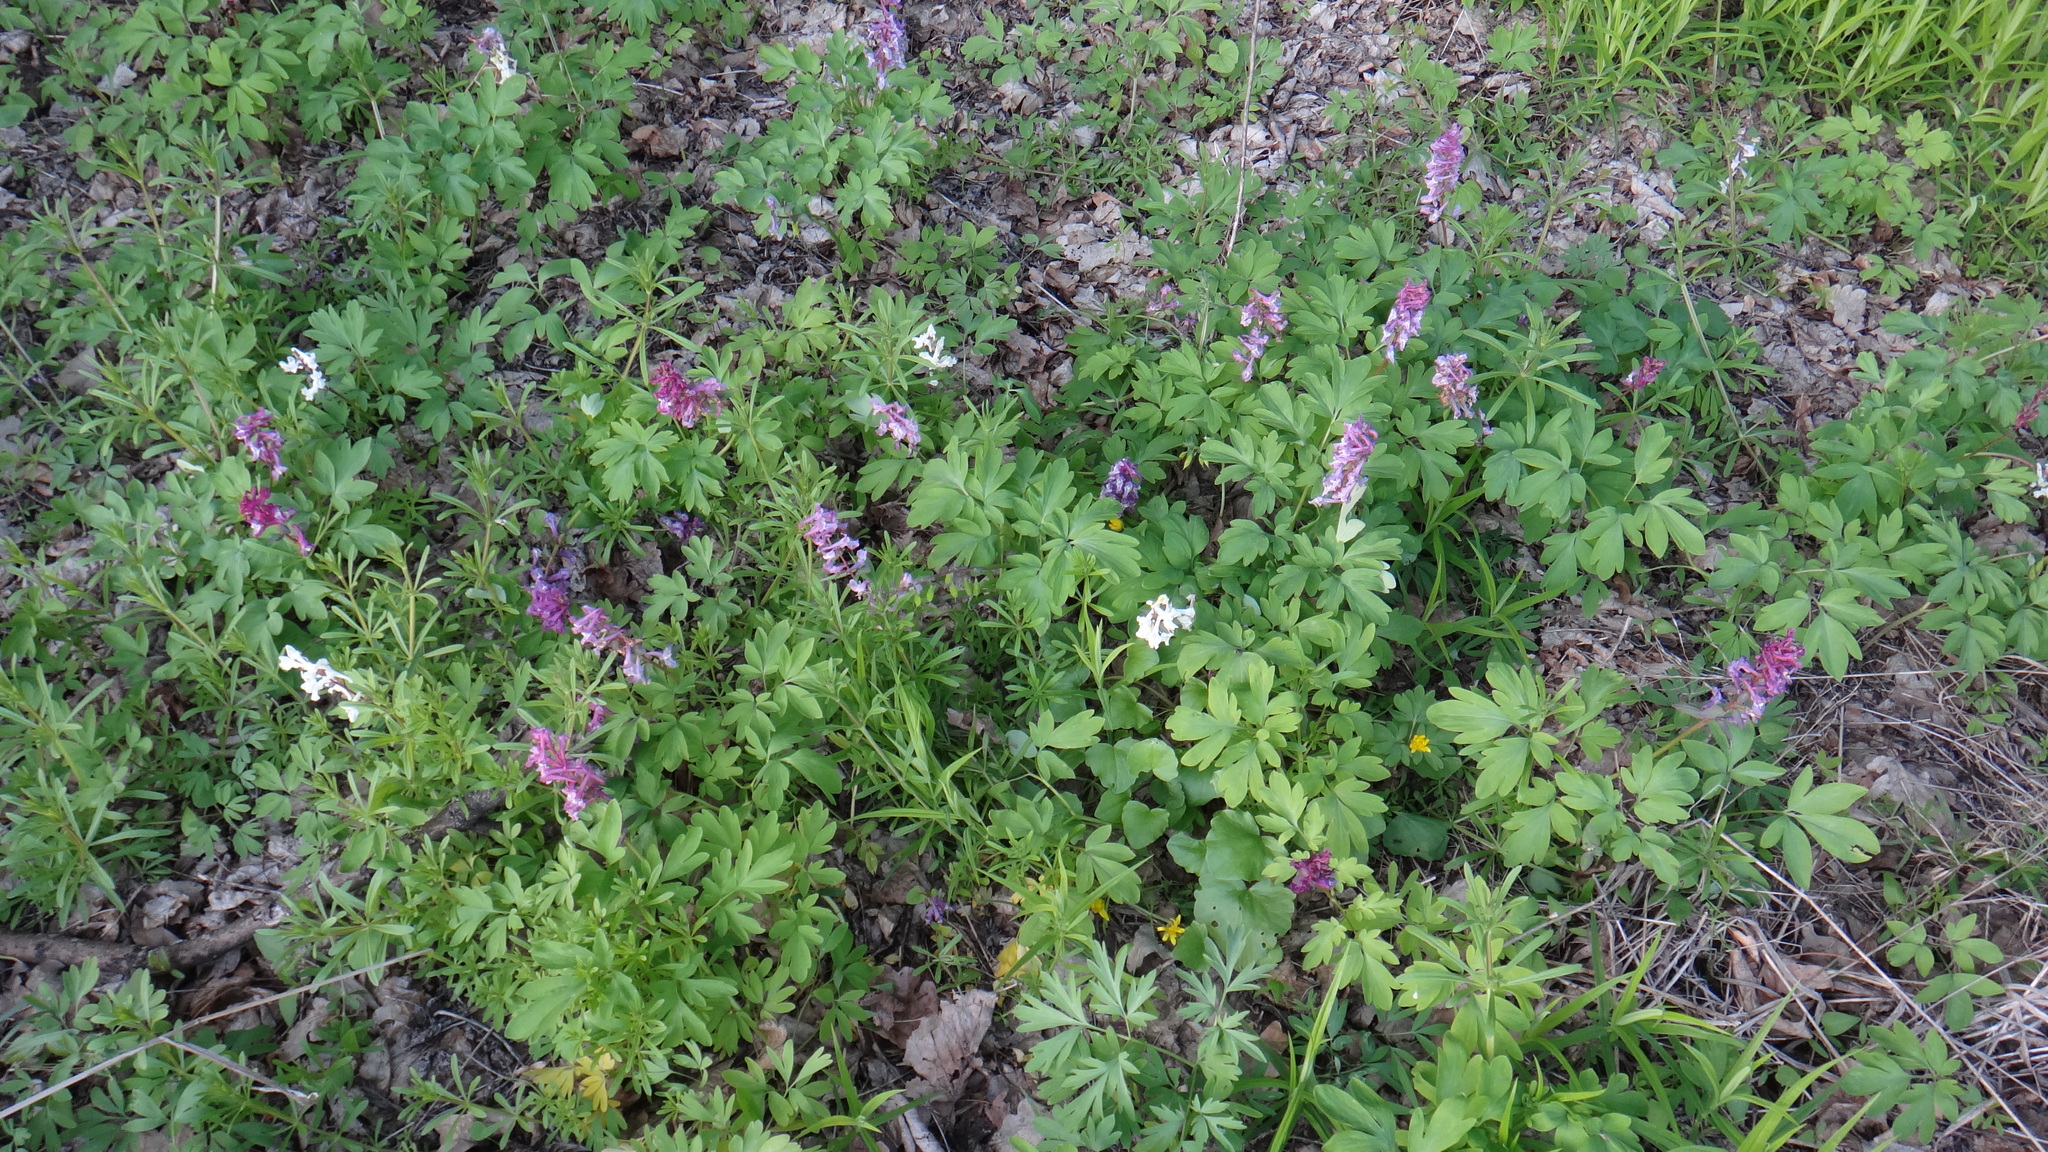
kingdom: Plantae
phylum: Tracheophyta
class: Magnoliopsida
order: Ranunculales
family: Papaveraceae
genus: Corydalis
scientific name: Corydalis cava
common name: Hollowroot
